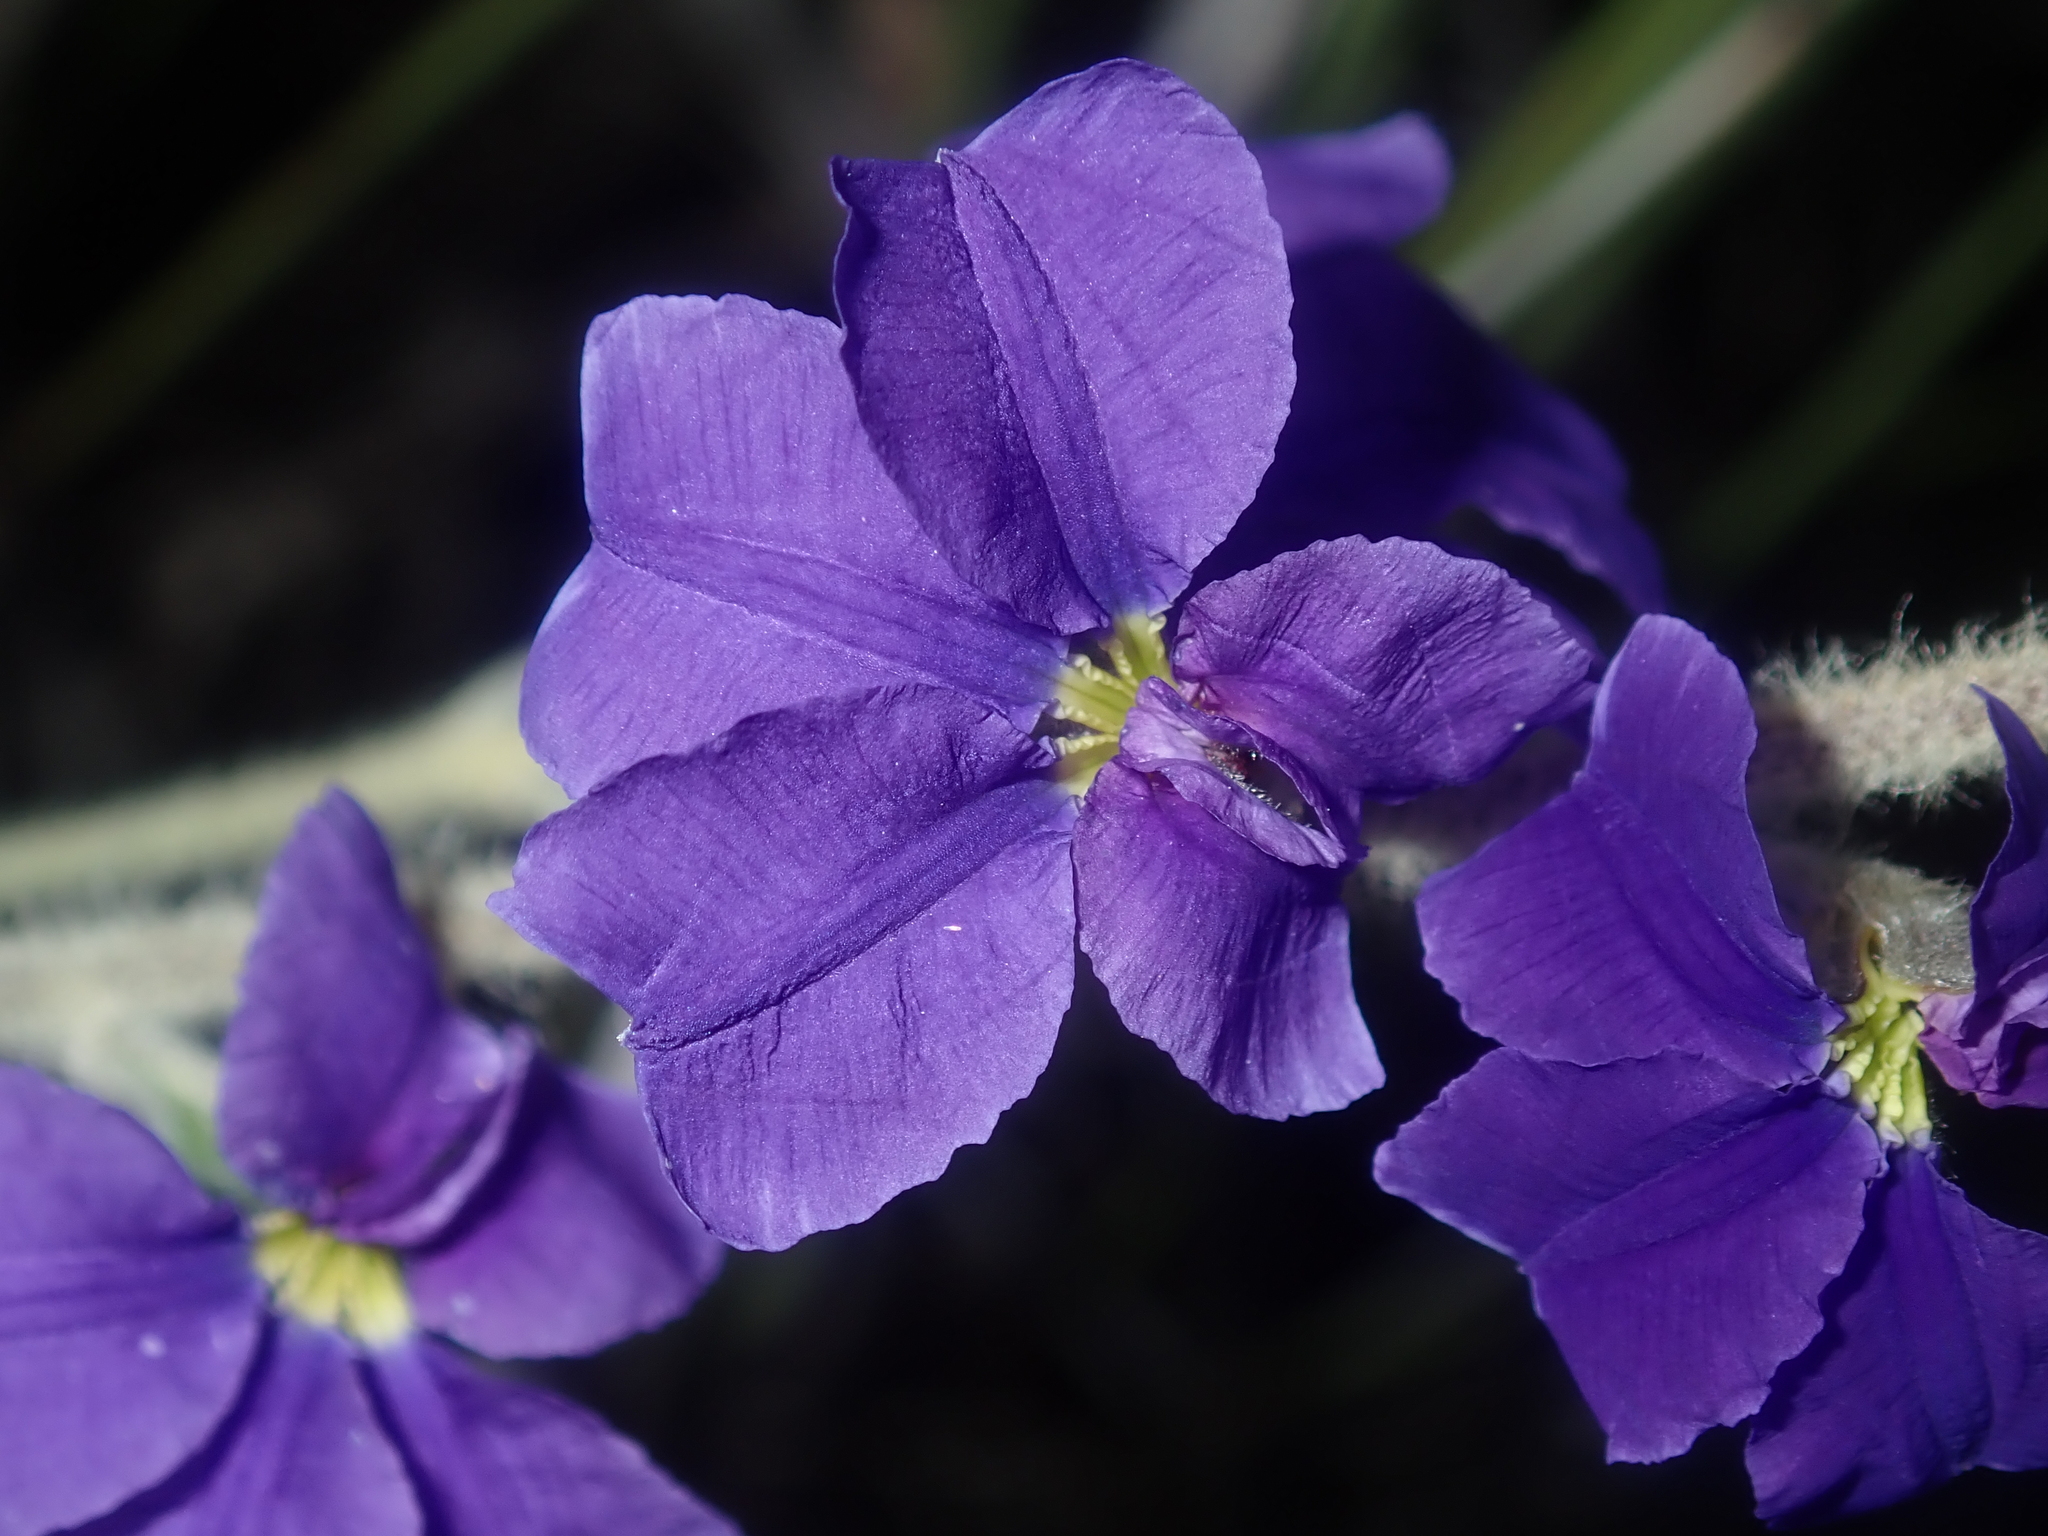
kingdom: Plantae
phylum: Tracheophyta
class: Magnoliopsida
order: Asterales
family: Goodeniaceae
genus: Dampiera
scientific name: Dampiera tomentosa
